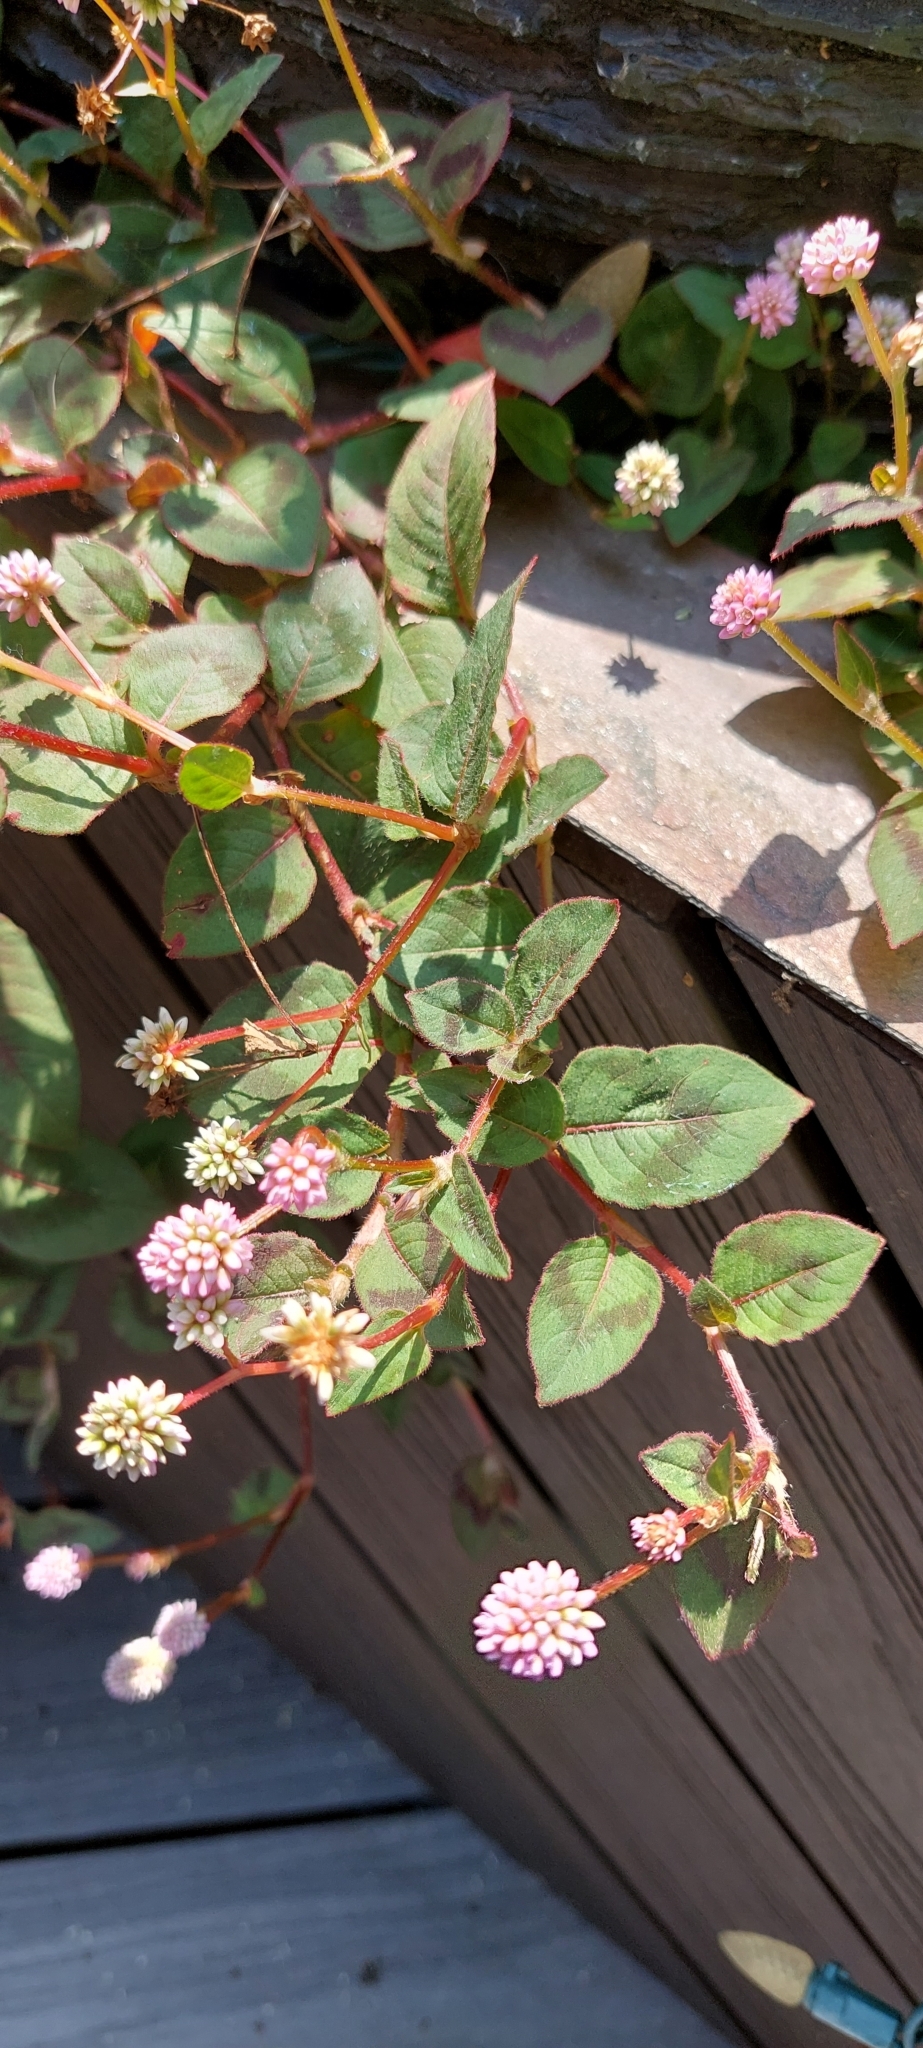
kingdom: Plantae
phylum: Tracheophyta
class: Magnoliopsida
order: Caryophyllales
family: Polygonaceae
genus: Persicaria
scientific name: Persicaria capitata
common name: Pinkhead smartweed
